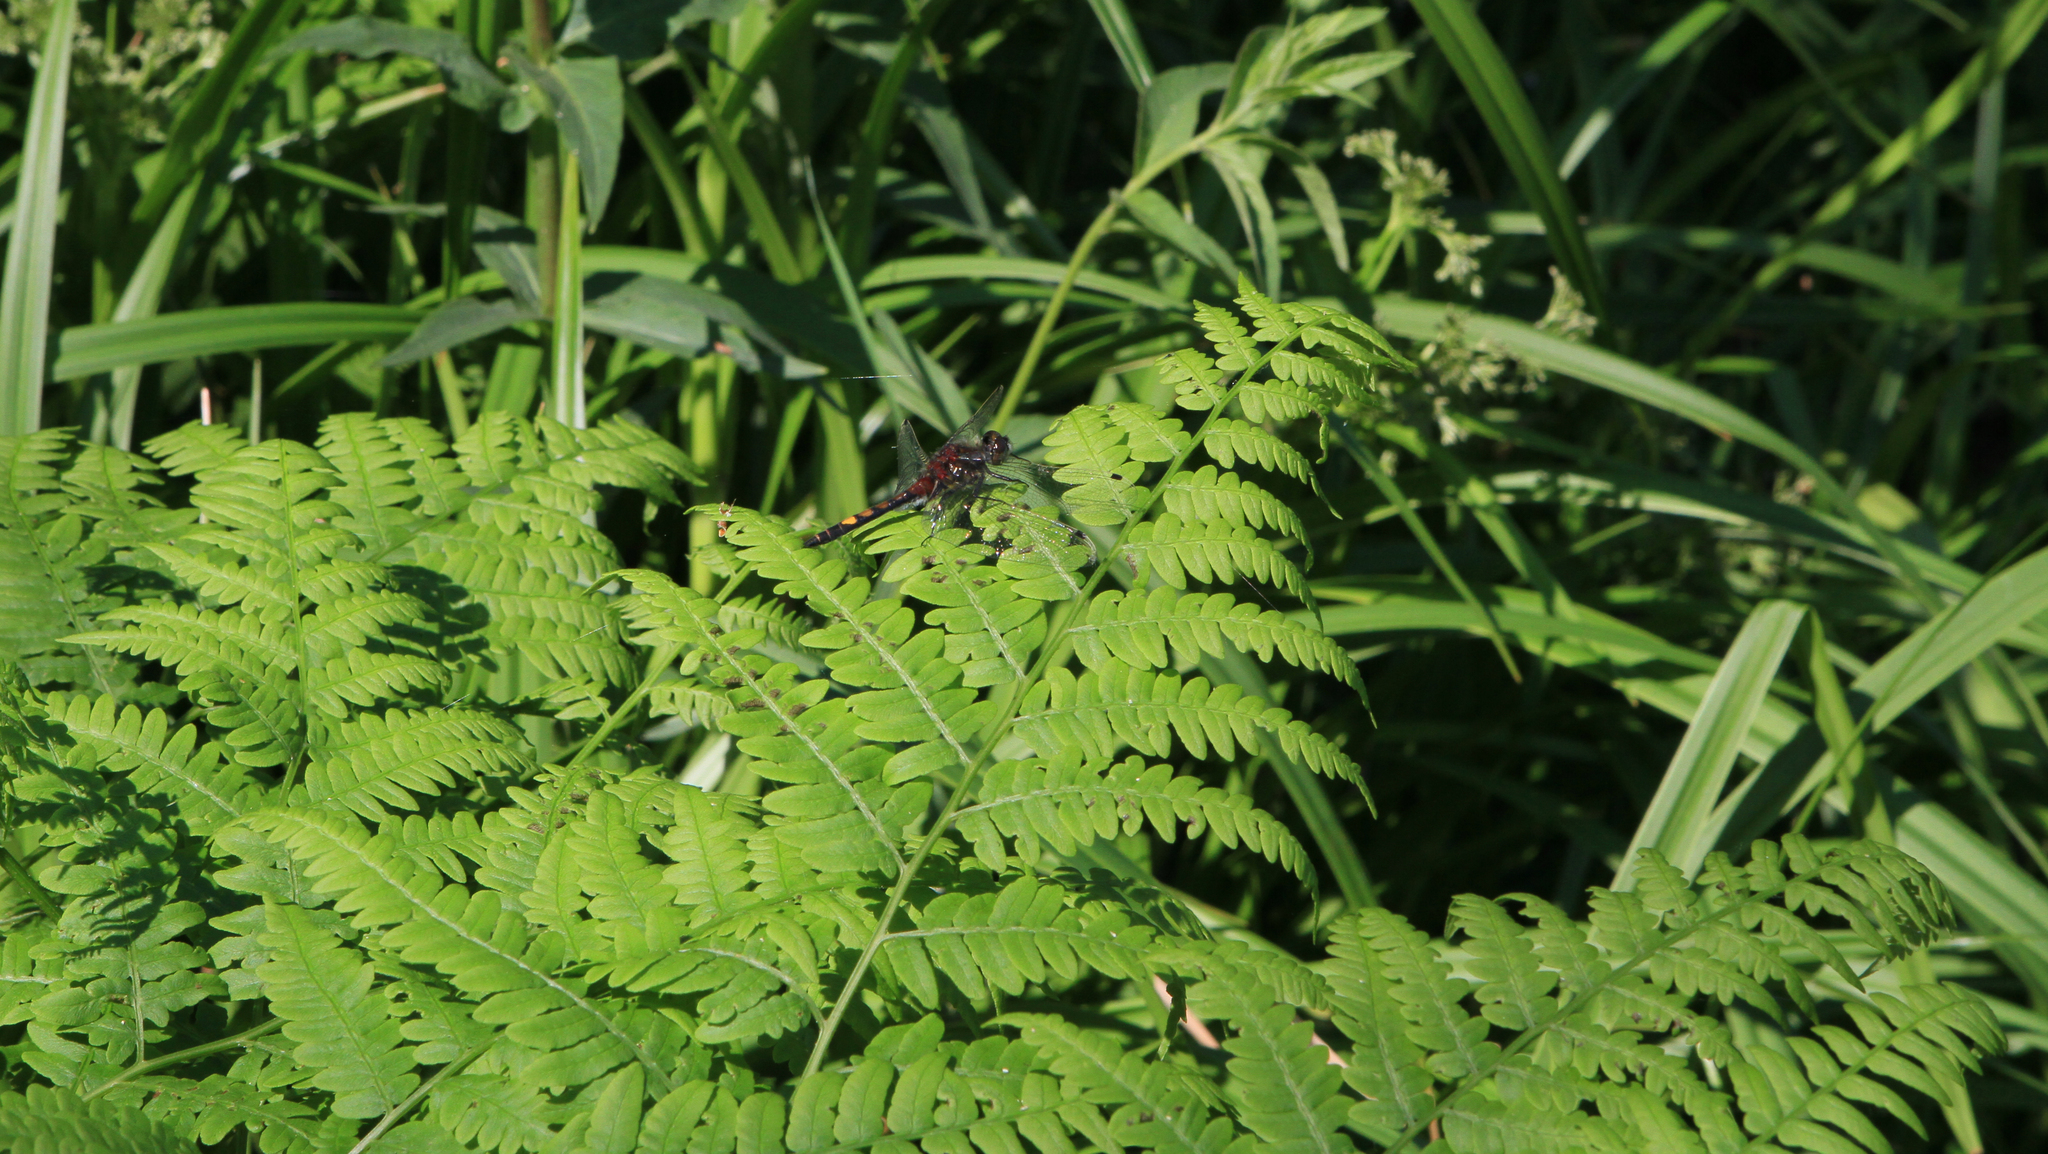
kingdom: Plantae
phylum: Tracheophyta
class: Polypodiopsida
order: Polypodiales
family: Dennstaedtiaceae
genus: Pteridium
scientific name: Pteridium aquilinum
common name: Bracken
